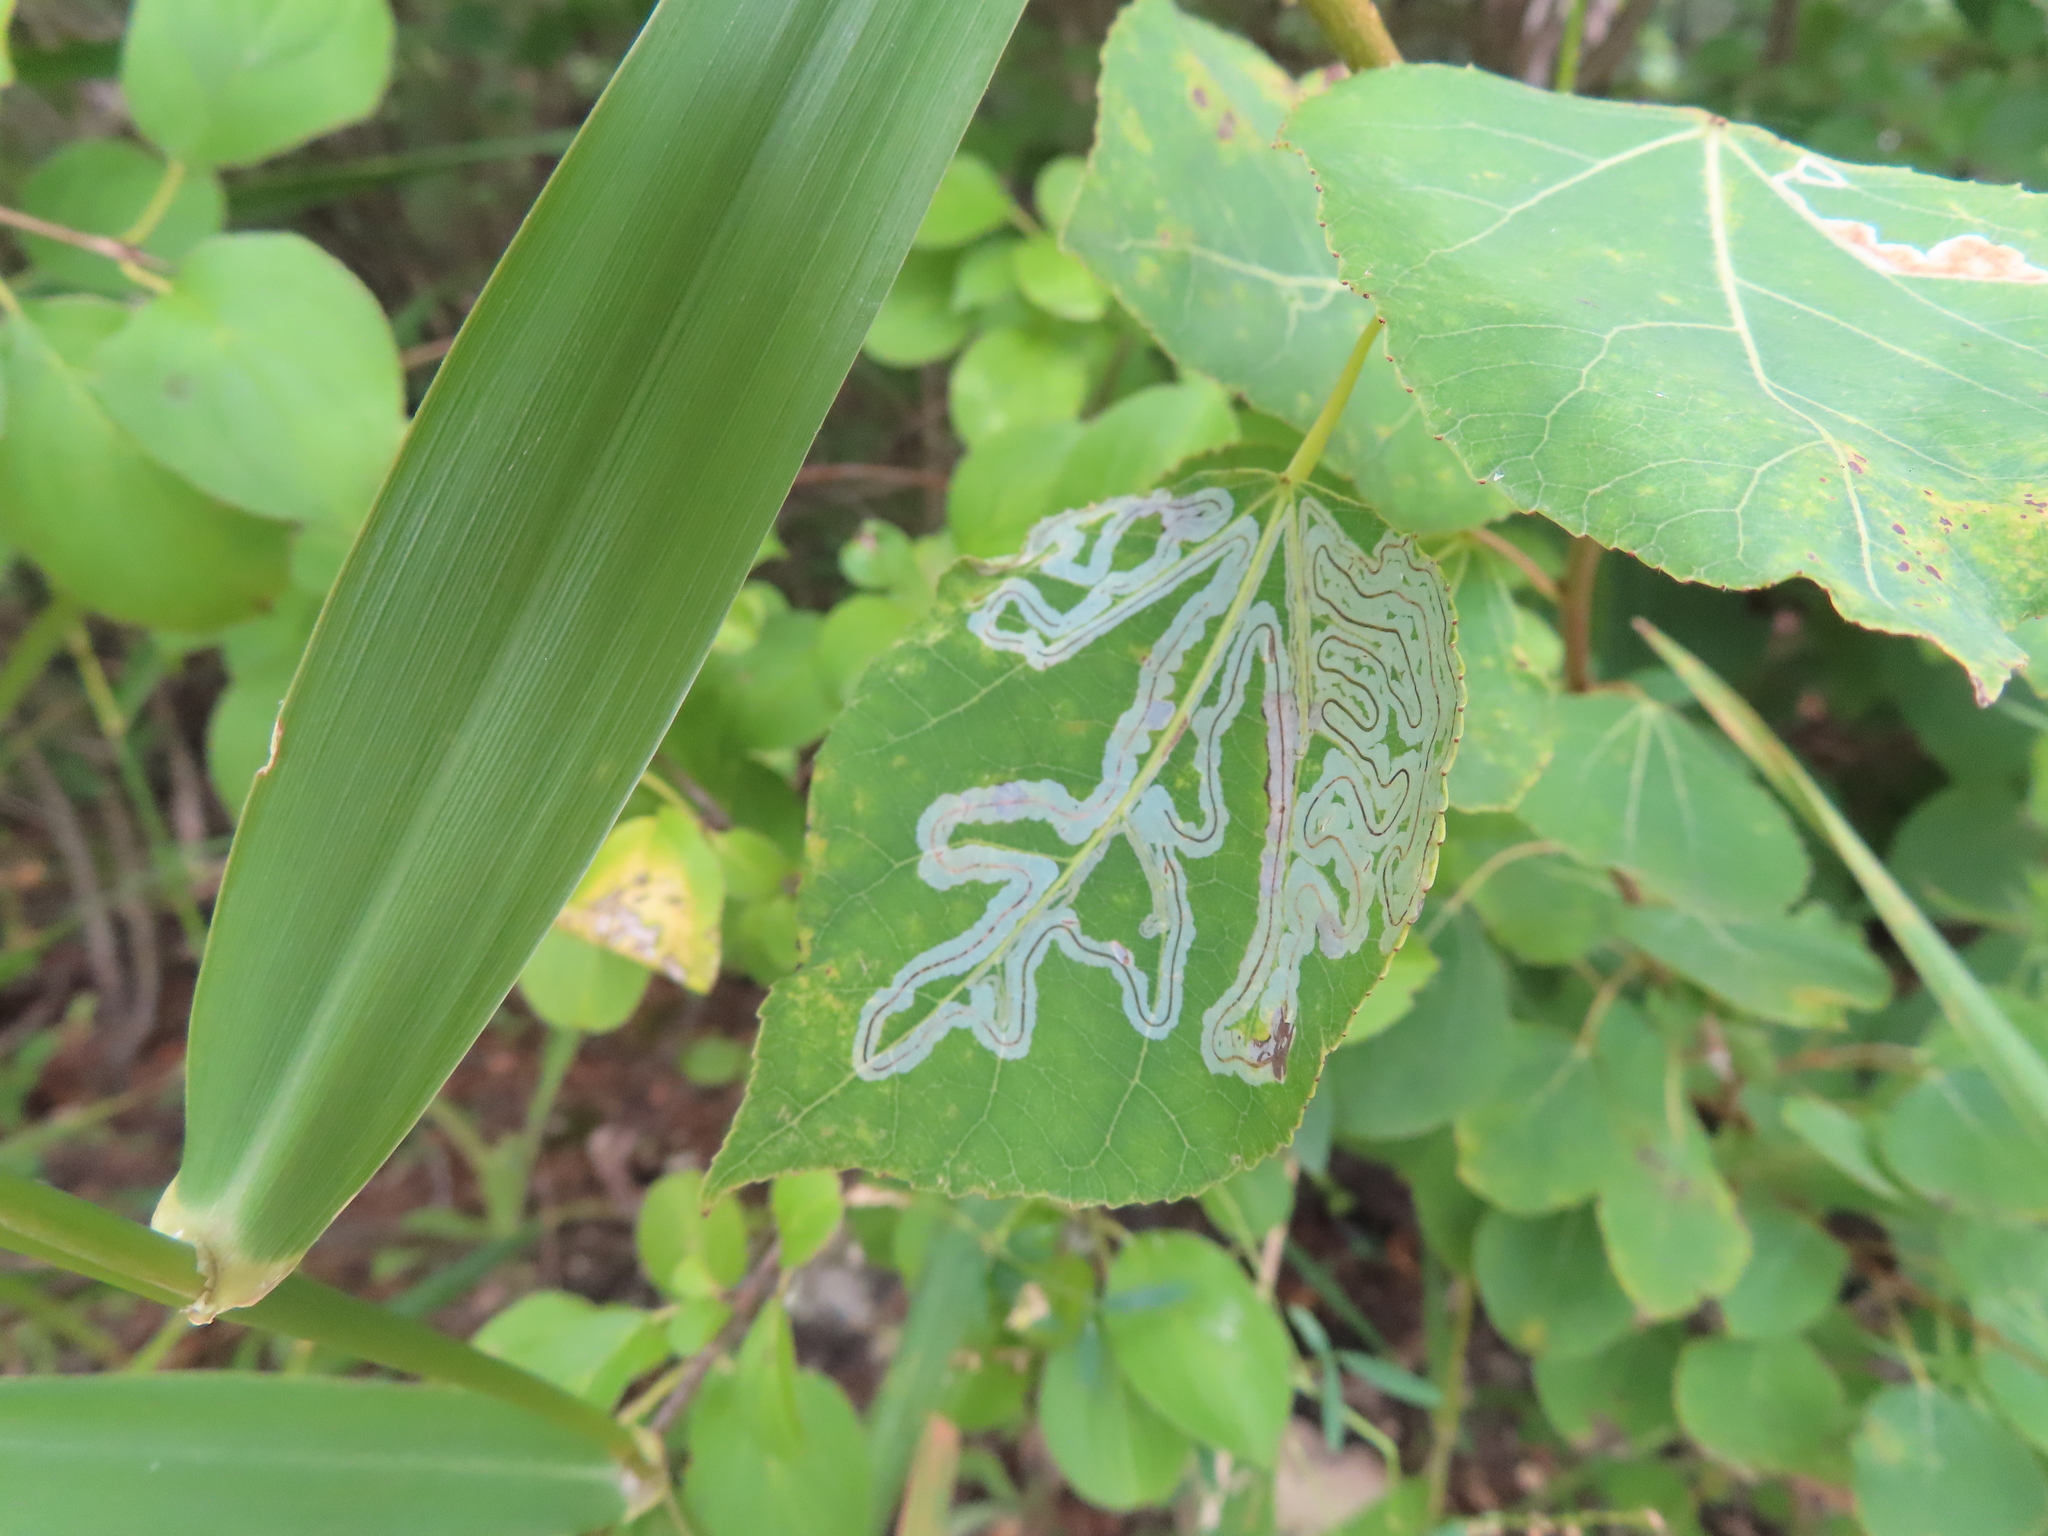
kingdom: Animalia
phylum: Arthropoda
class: Insecta
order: Lepidoptera
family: Gracillariidae
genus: Phyllocnistis
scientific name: Phyllocnistis populiella
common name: Aspen serpentine leafminer moth
